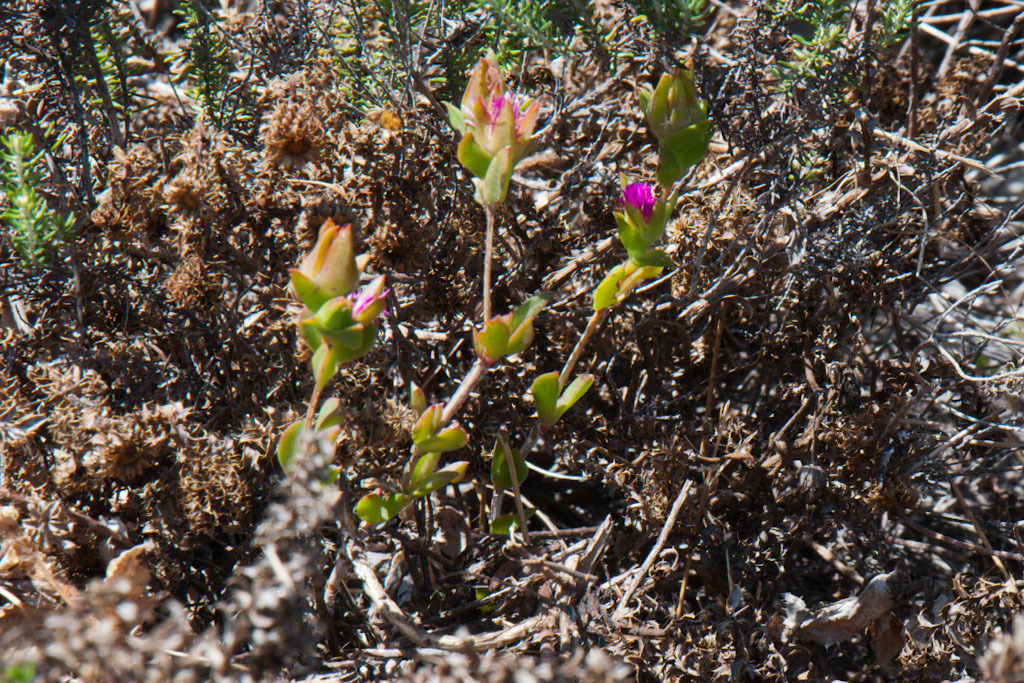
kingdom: Plantae
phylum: Tracheophyta
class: Magnoliopsida
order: Caryophyllales
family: Aizoaceae
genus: Erepsia
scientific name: Erepsia steytlerae
